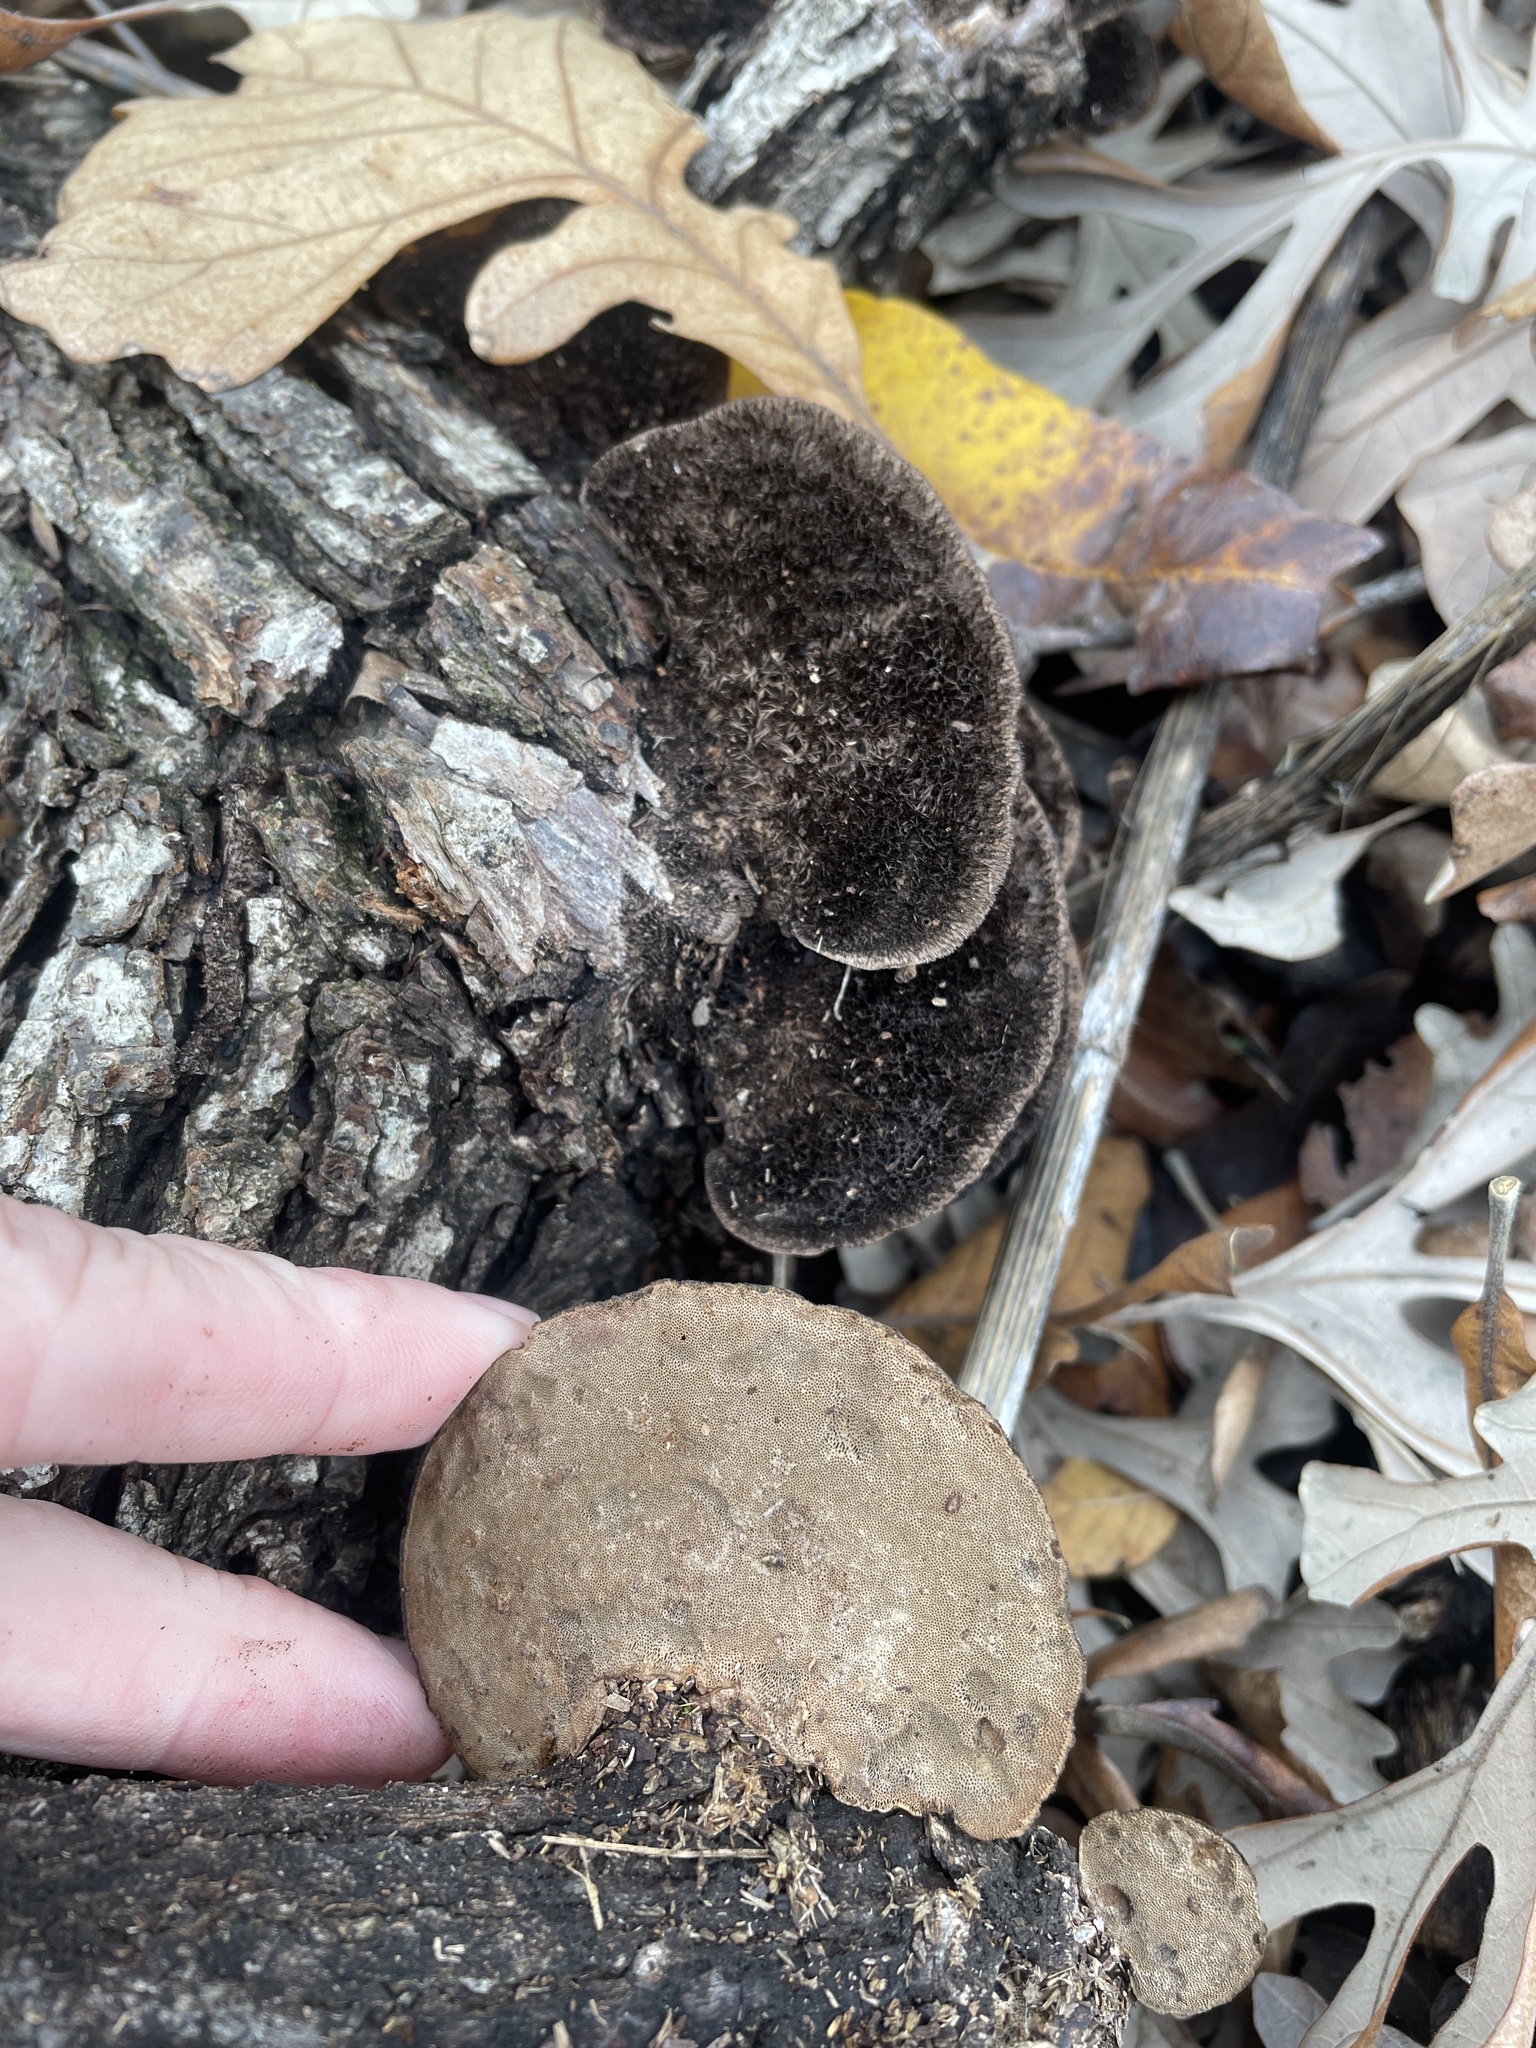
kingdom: Fungi
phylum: Basidiomycota
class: Agaricomycetes
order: Polyporales
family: Cerrenaceae
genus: Cerrena
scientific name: Cerrena hydnoides
